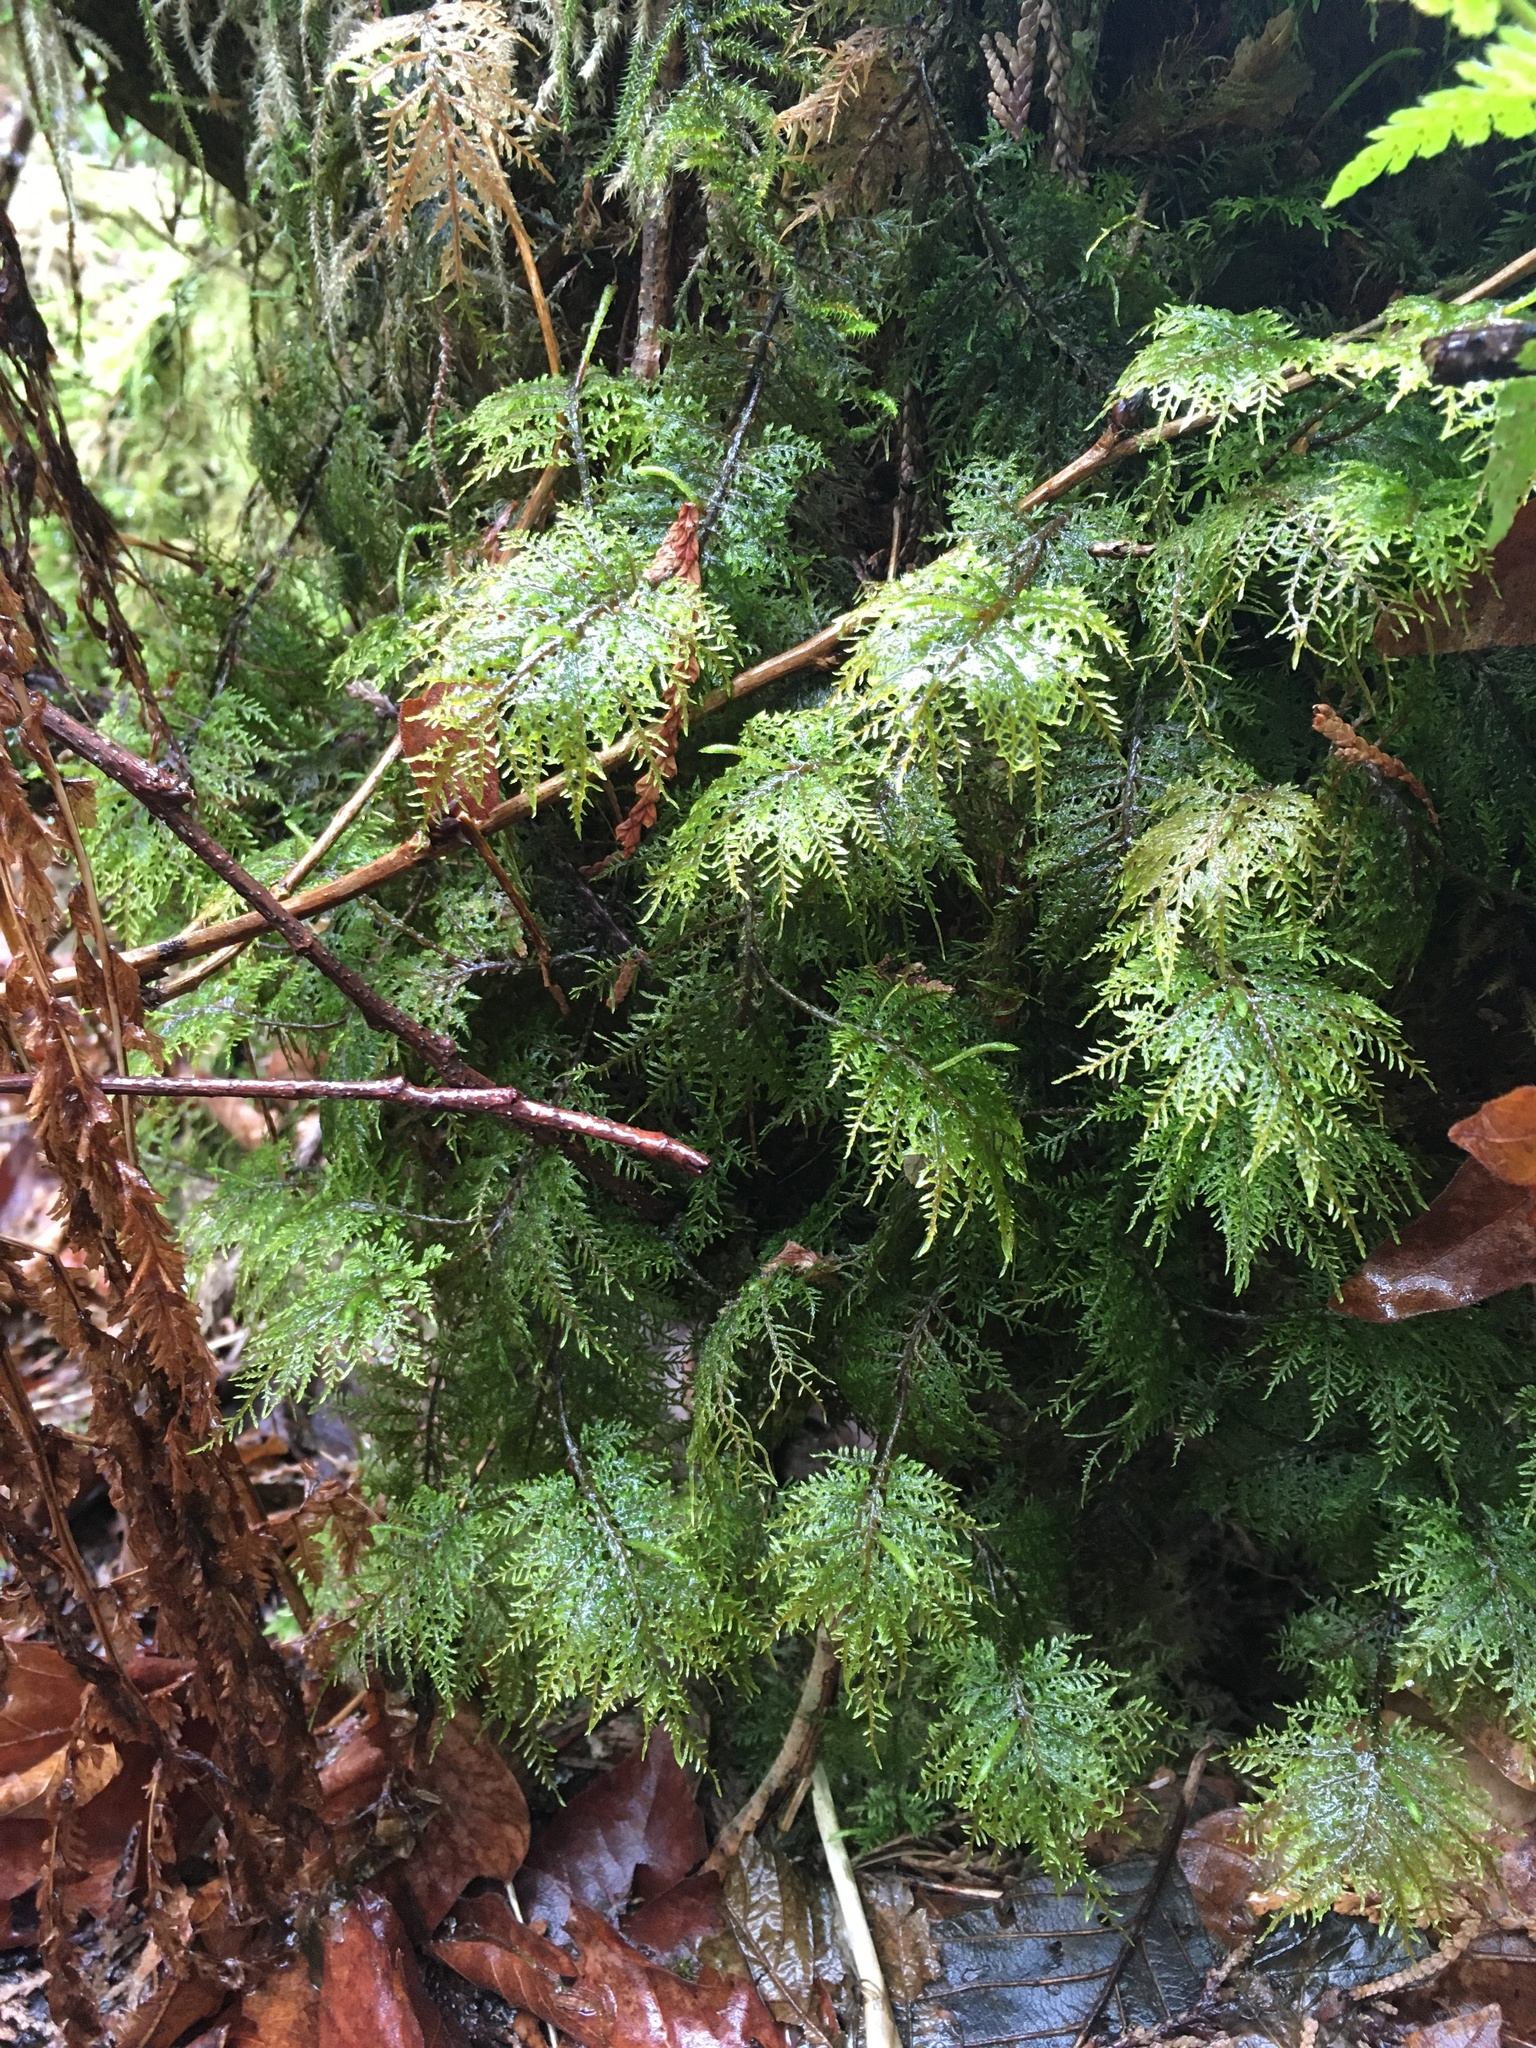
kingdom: Plantae
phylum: Bryophyta
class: Bryopsida
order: Hypnales
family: Hylocomiaceae
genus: Hylocomium
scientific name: Hylocomium splendens
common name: Stairstep moss
